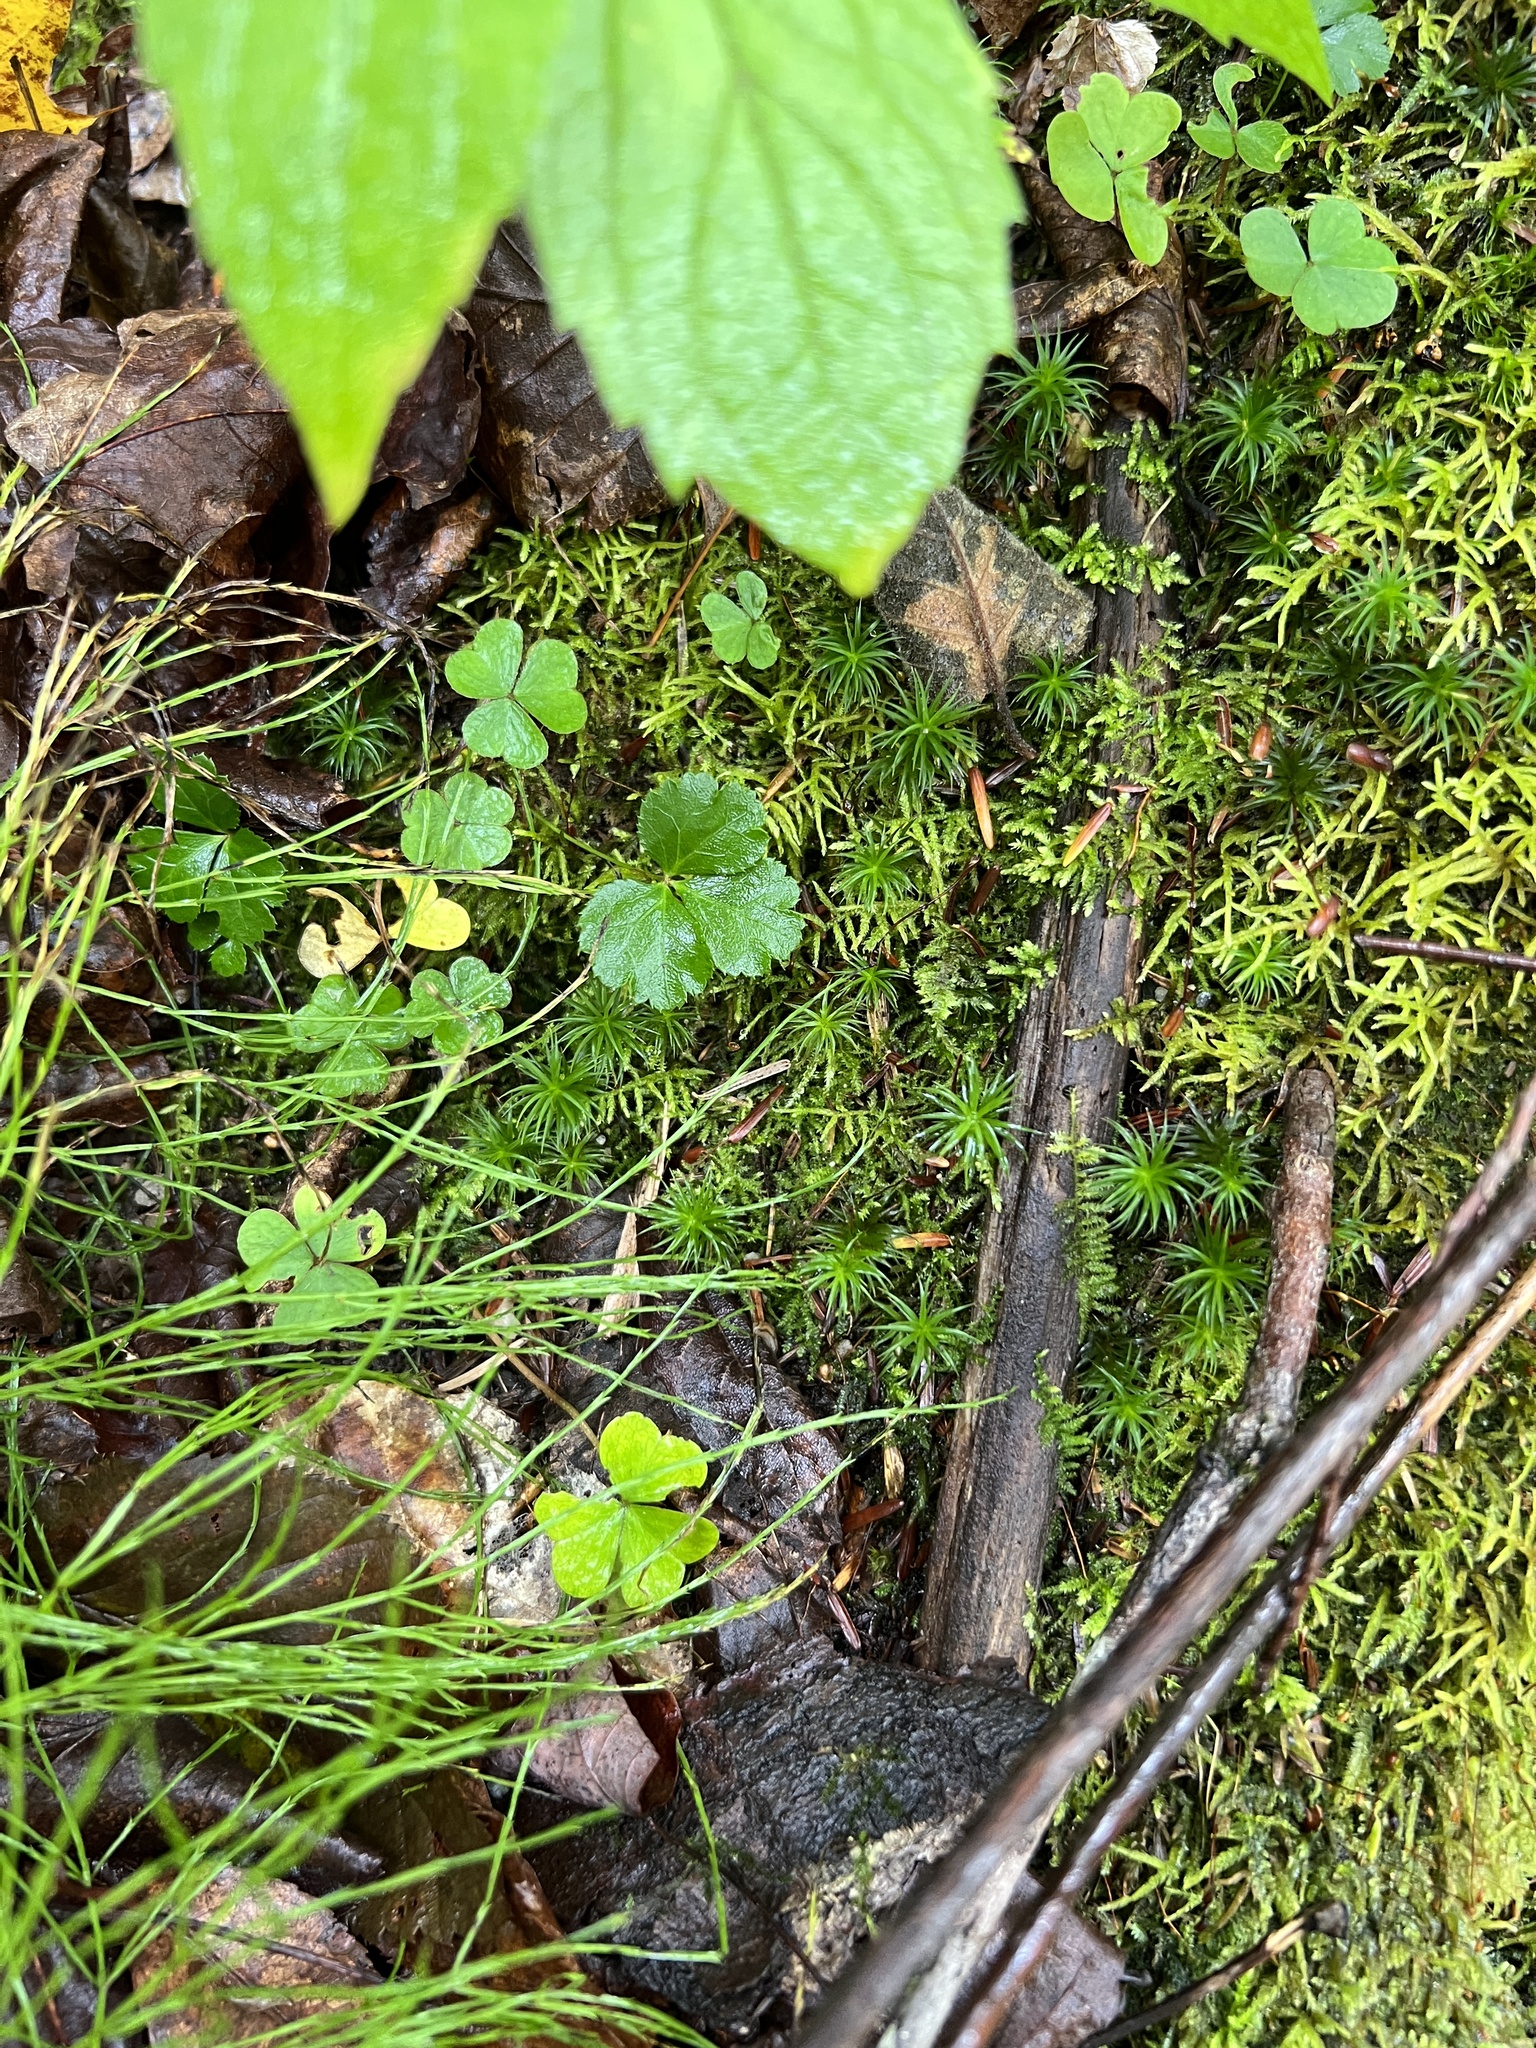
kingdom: Plantae
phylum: Tracheophyta
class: Magnoliopsida
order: Ranunculales
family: Ranunculaceae
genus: Coptis
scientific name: Coptis trifolia
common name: Canker-root
